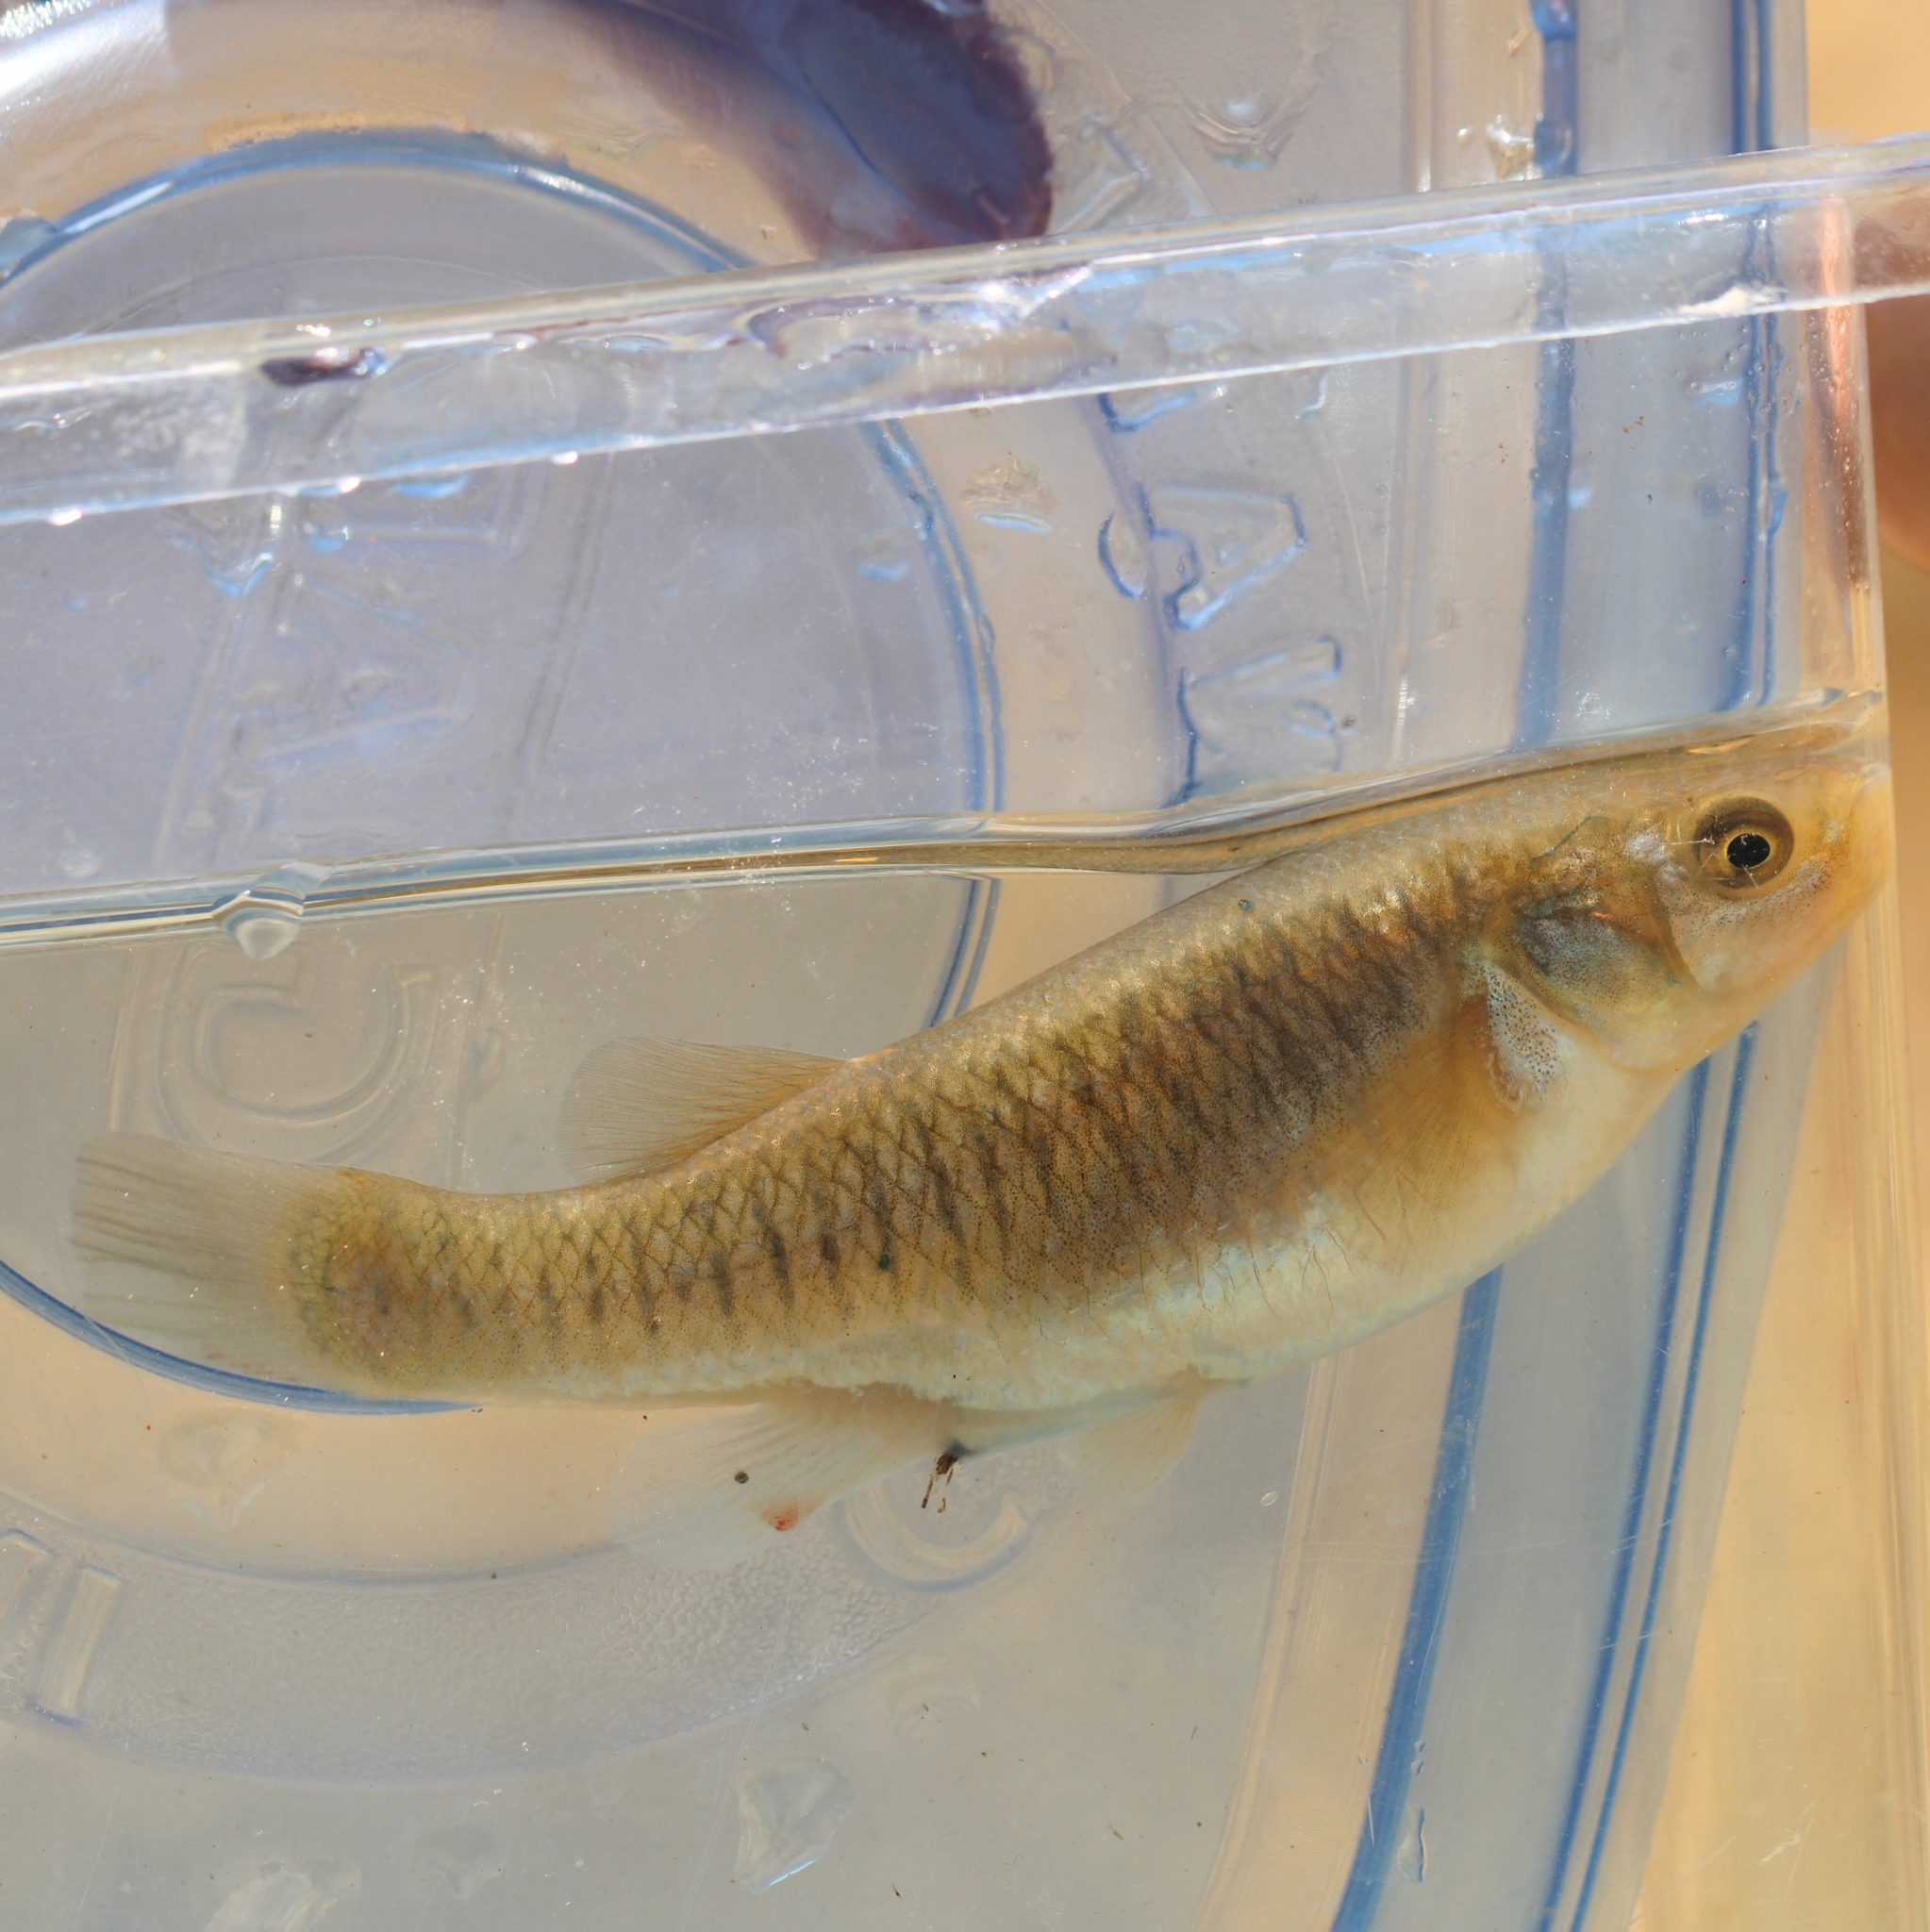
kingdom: Animalia
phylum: Chordata
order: Cyprinodontiformes
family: Fundulidae
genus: Fundulus
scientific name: Fundulus heteroclitus
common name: Mummichog
